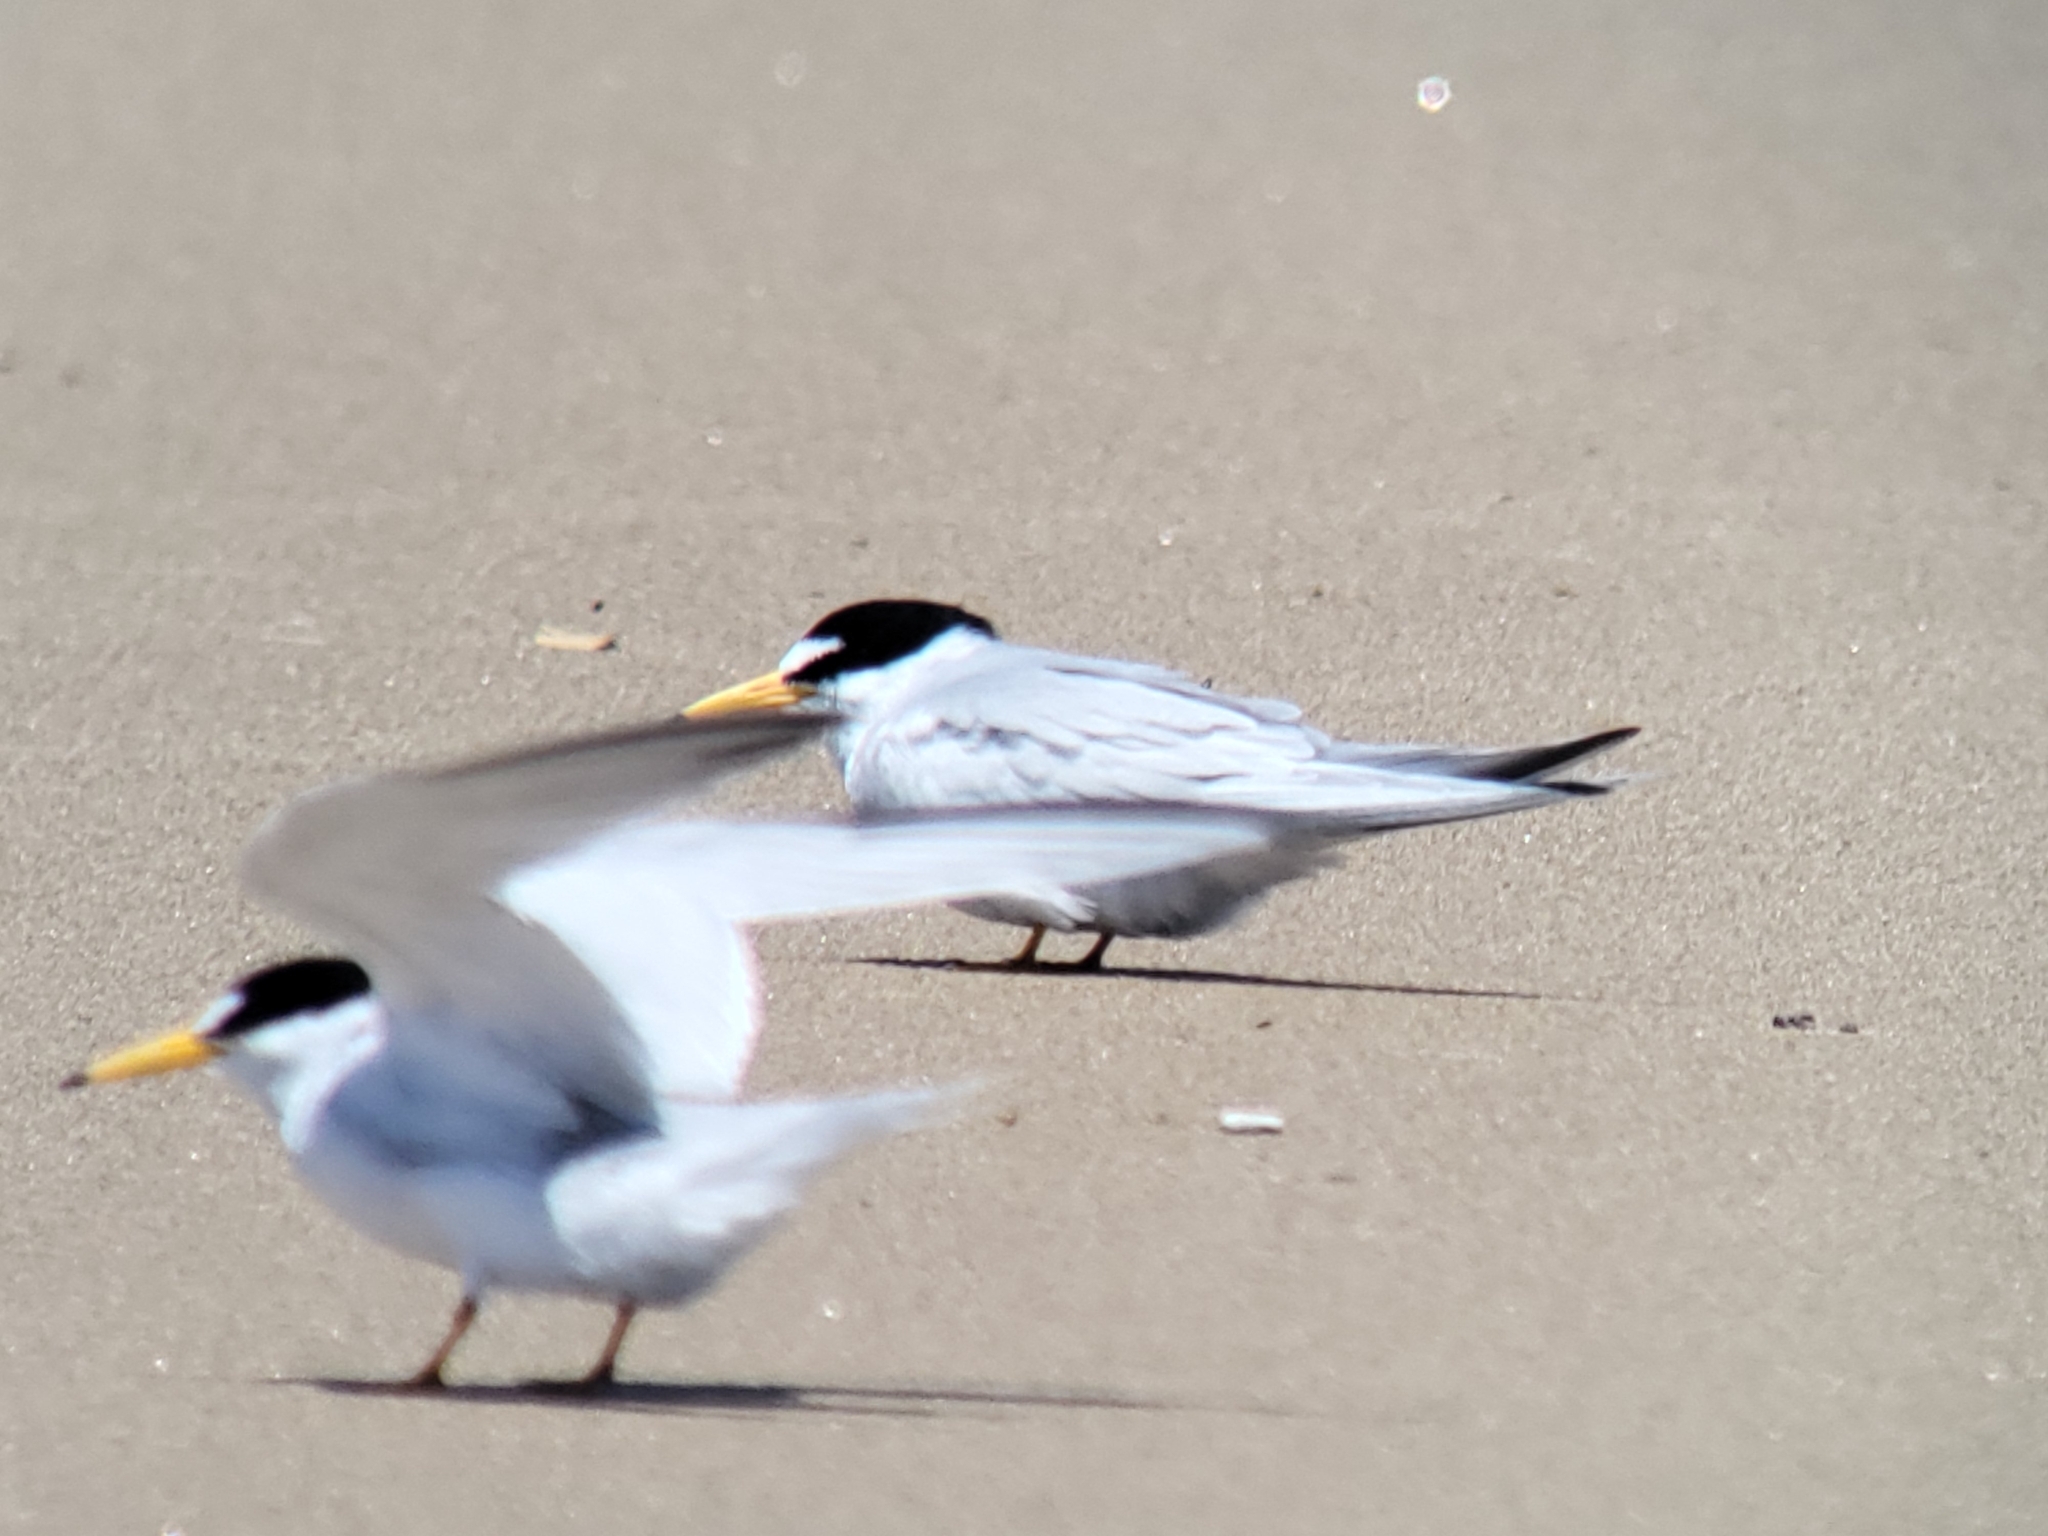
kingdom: Animalia
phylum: Chordata
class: Aves
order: Charadriiformes
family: Laridae
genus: Sternula
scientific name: Sternula antillarum
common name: Least tern
